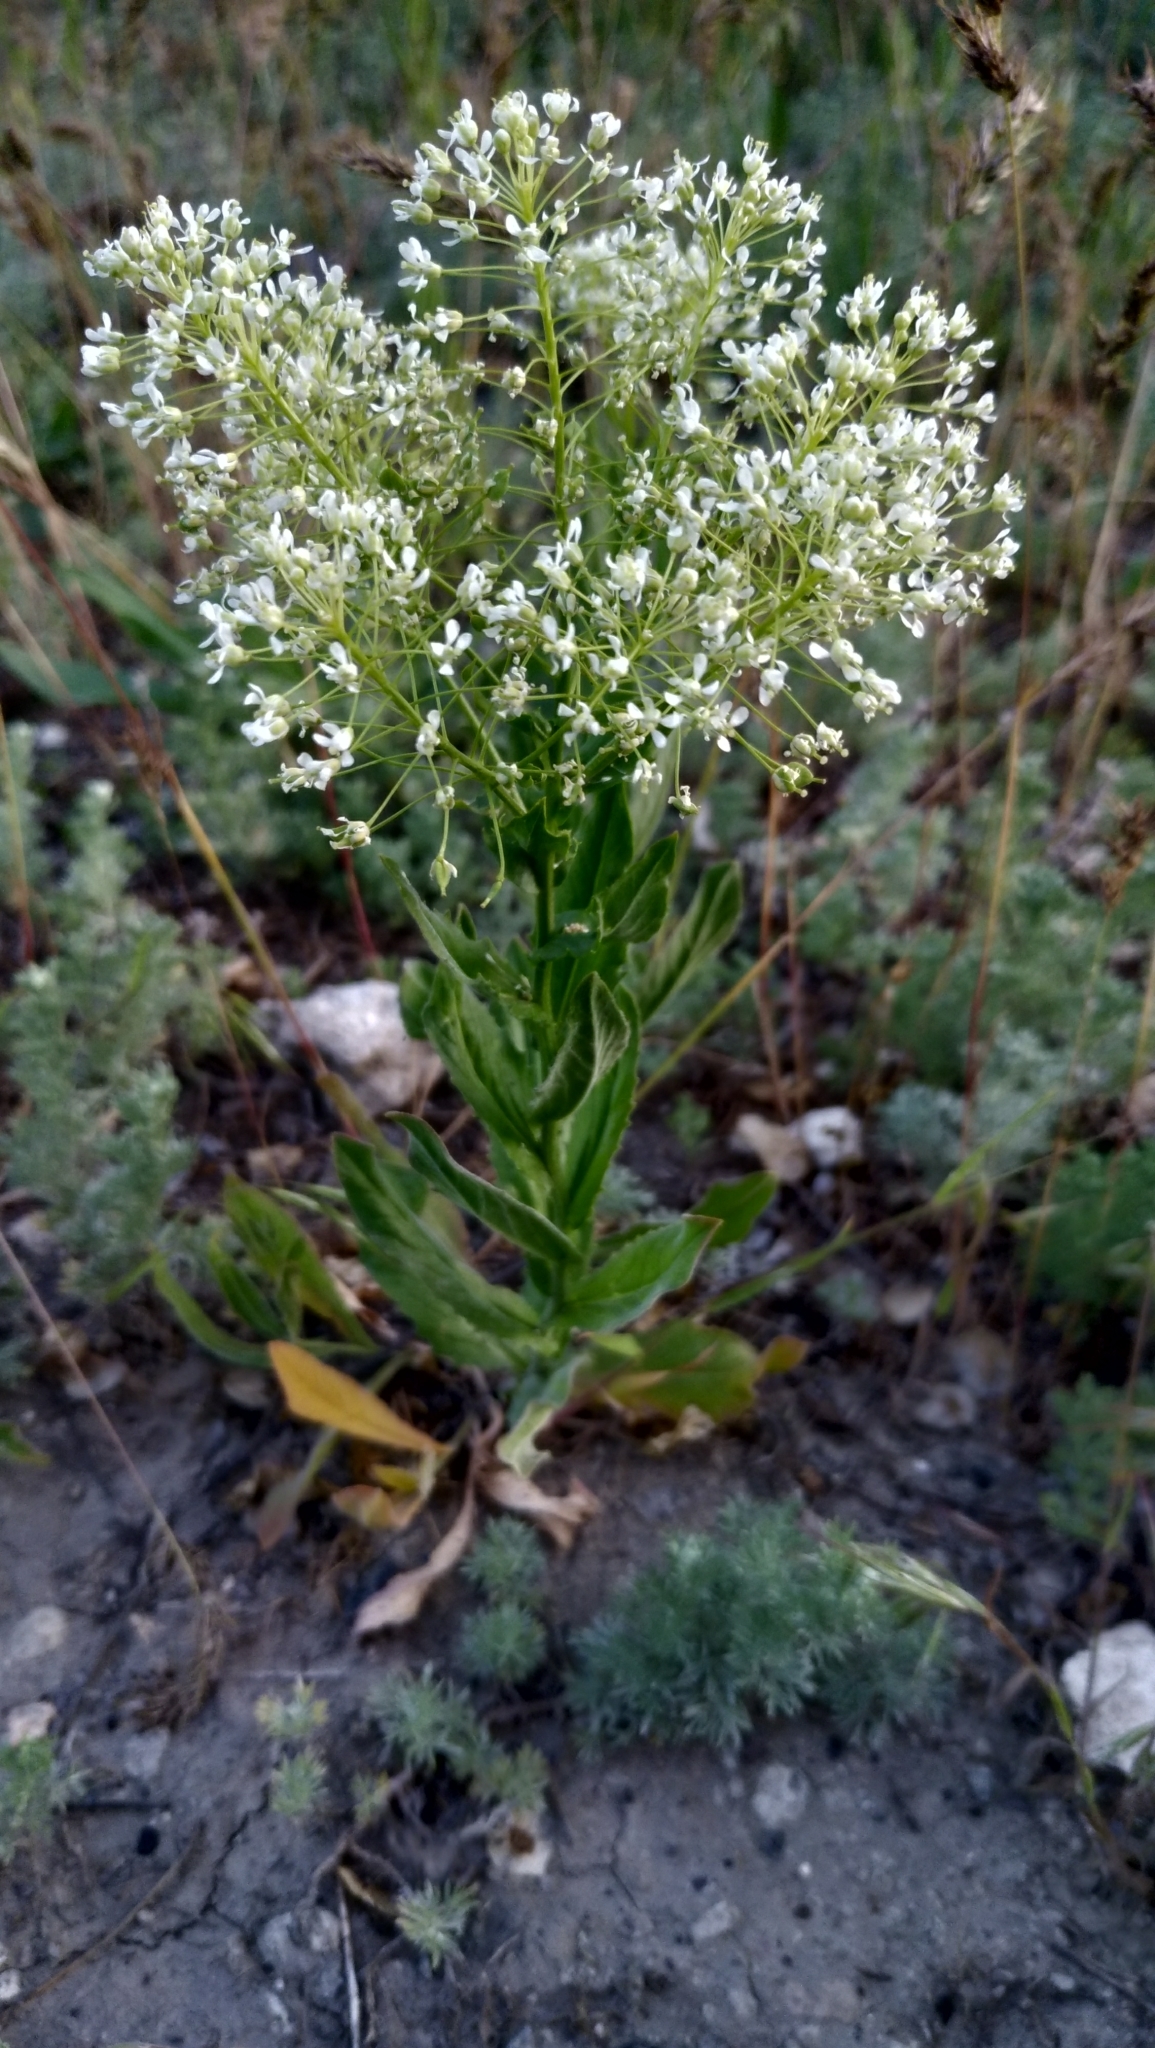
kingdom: Plantae
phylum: Tracheophyta
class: Magnoliopsida
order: Brassicales
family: Brassicaceae
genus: Lepidium
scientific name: Lepidium draba
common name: Hoary cress
